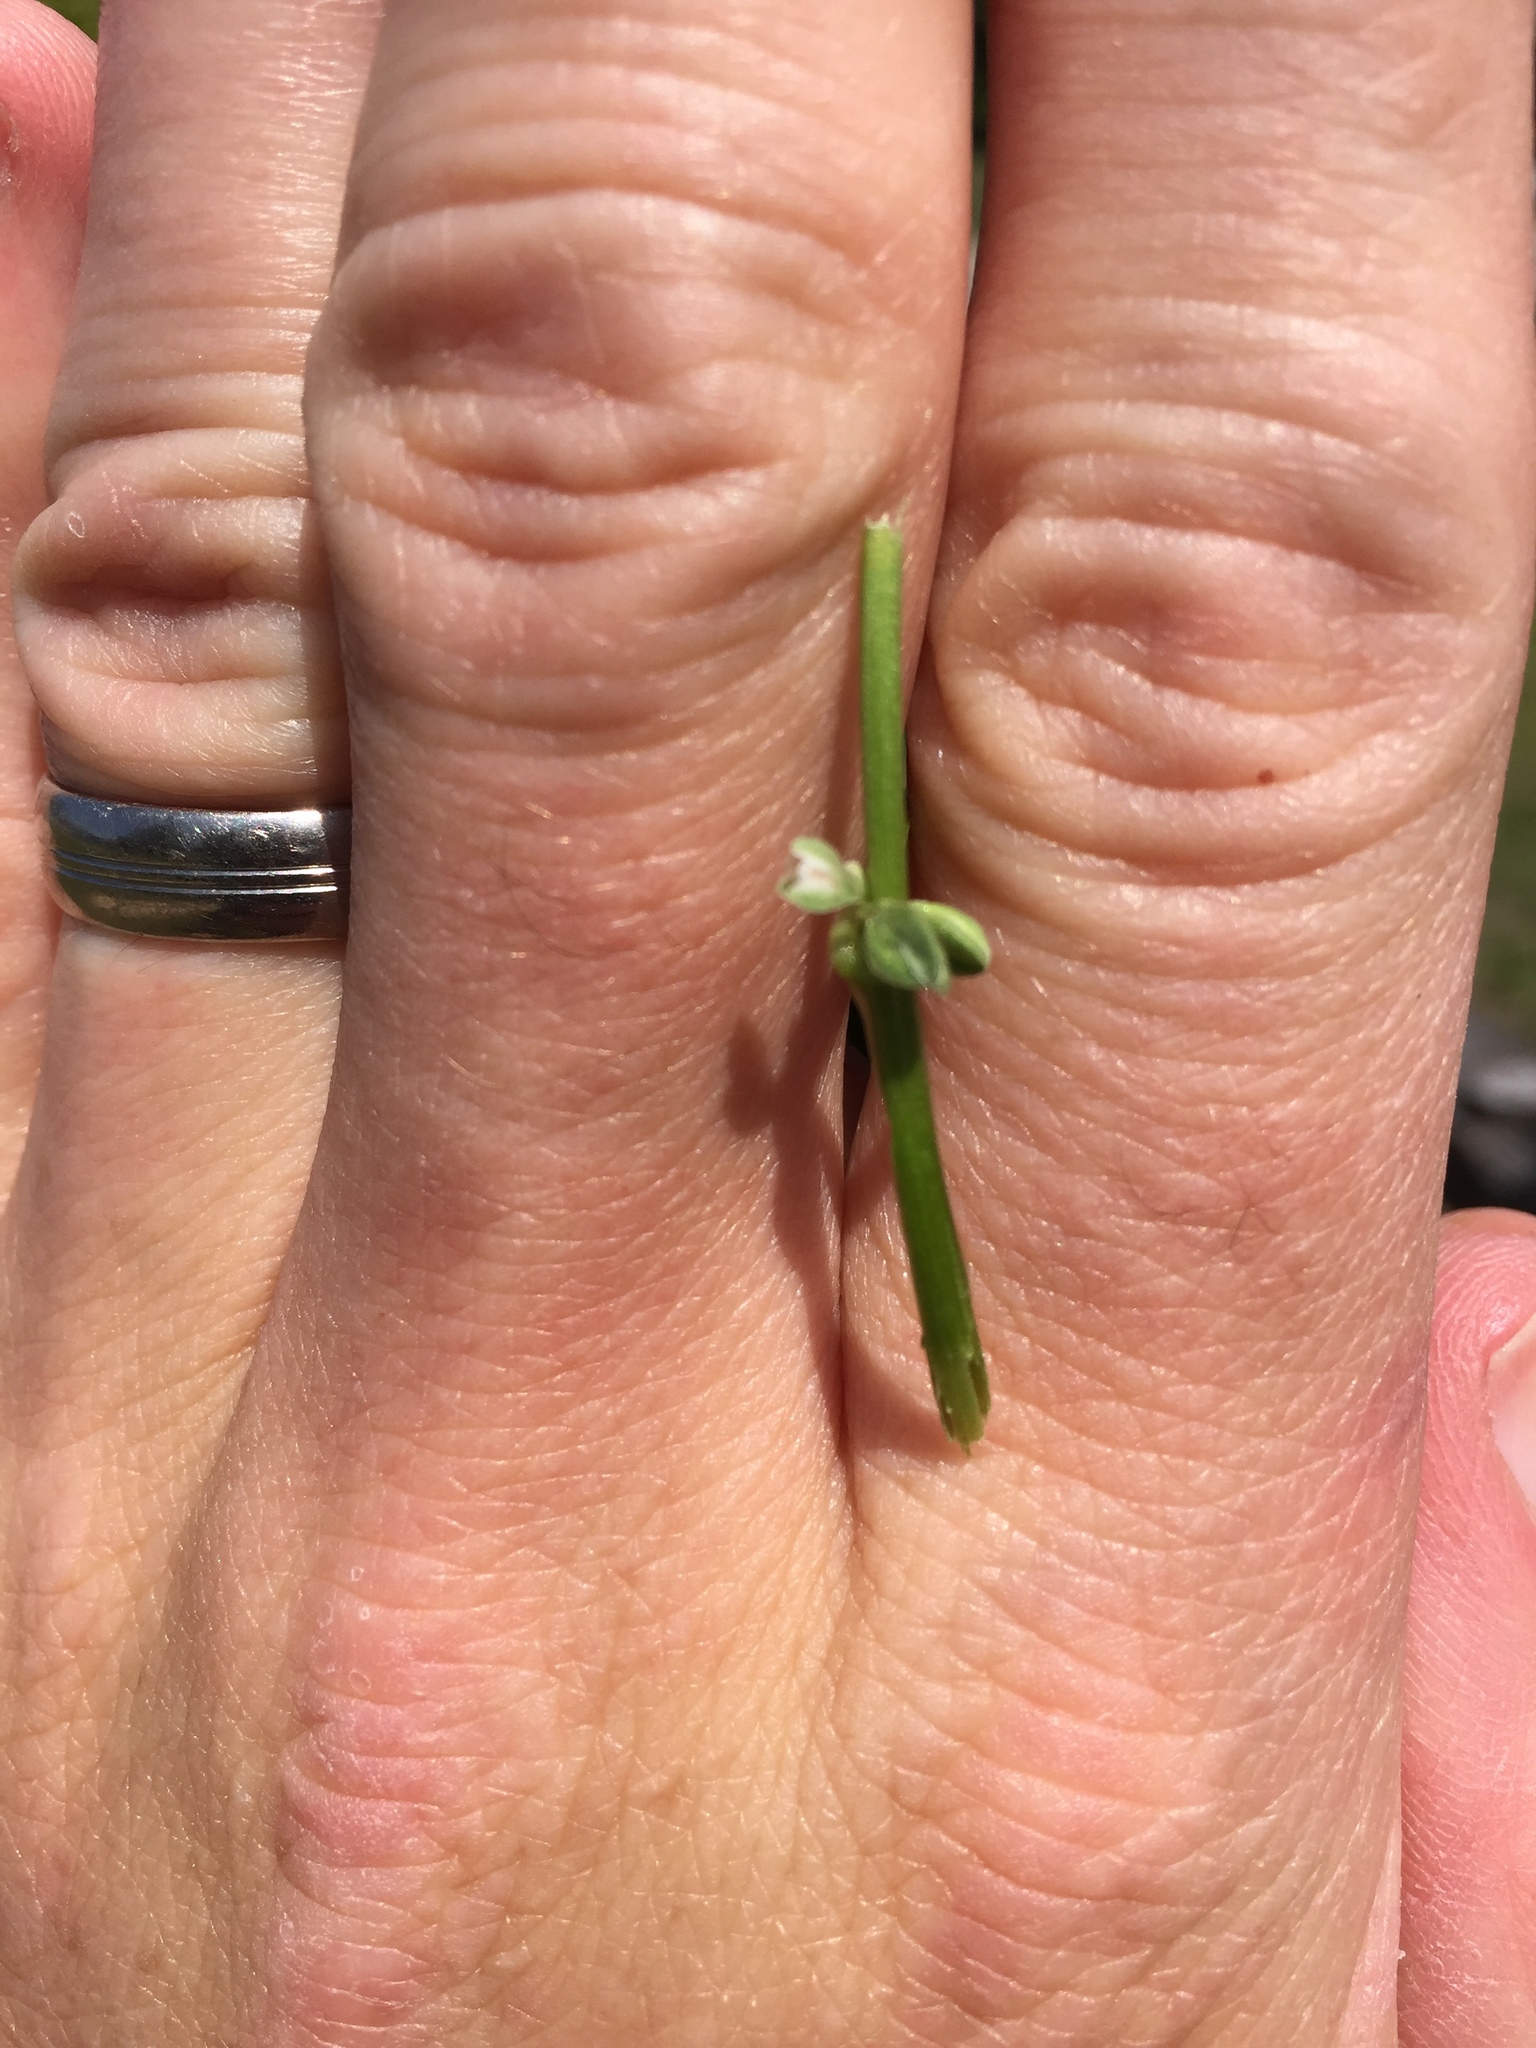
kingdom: Plantae
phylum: Tracheophyta
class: Magnoliopsida
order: Solanales
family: Convolvulaceae
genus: Calystegia
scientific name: Calystegia sepium
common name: Hedge bindweed
